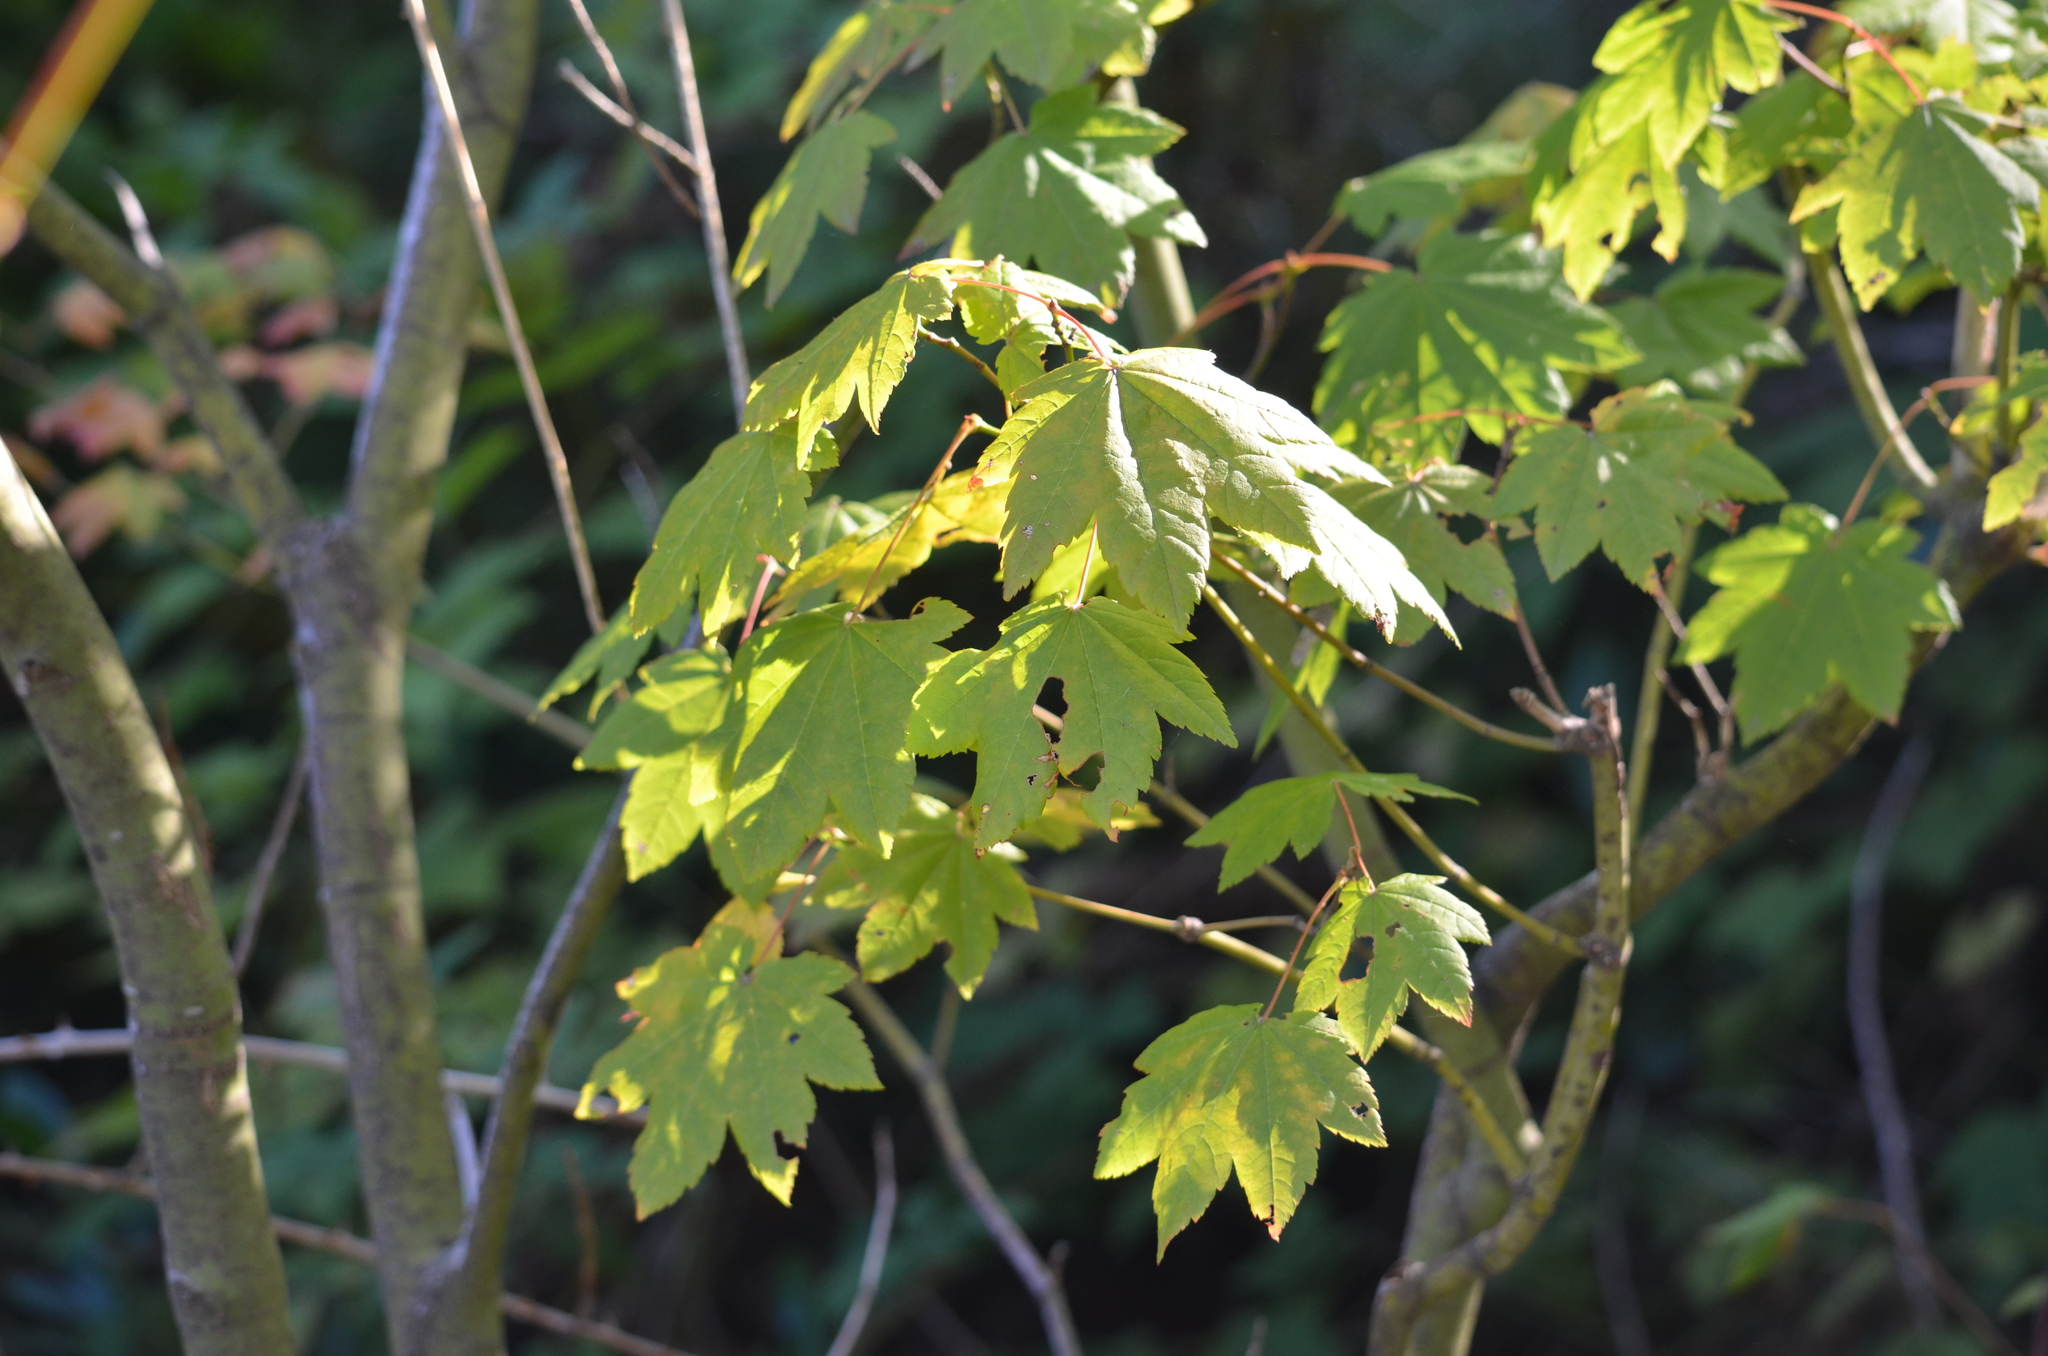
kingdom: Plantae
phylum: Tracheophyta
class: Magnoliopsida
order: Sapindales
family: Sapindaceae
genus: Acer
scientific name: Acer circinatum
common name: Vine maple
